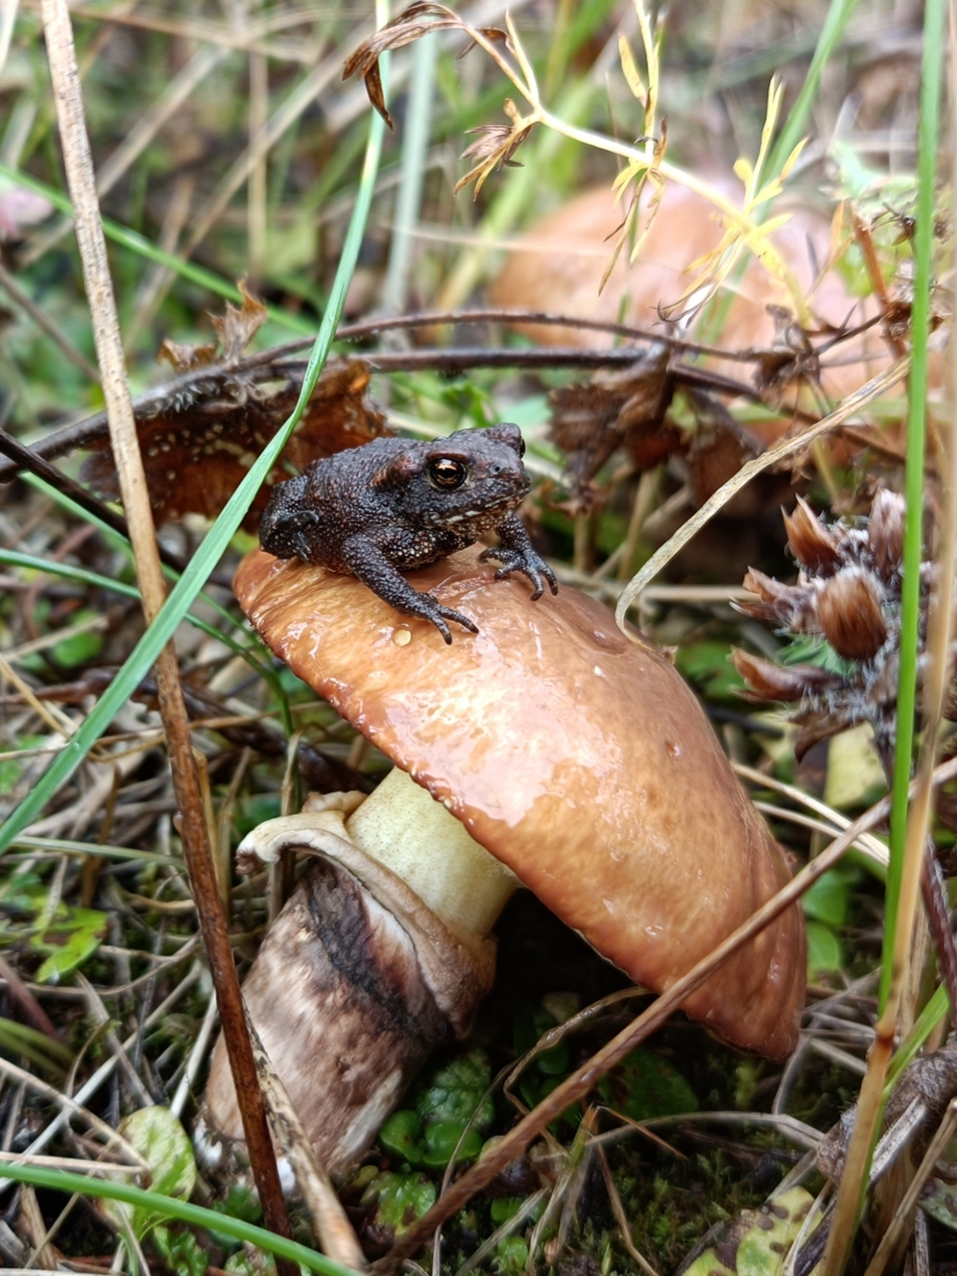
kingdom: Animalia
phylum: Chordata
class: Amphibia
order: Anura
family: Bufonidae
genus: Bufo
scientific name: Bufo bufo
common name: Common toad
